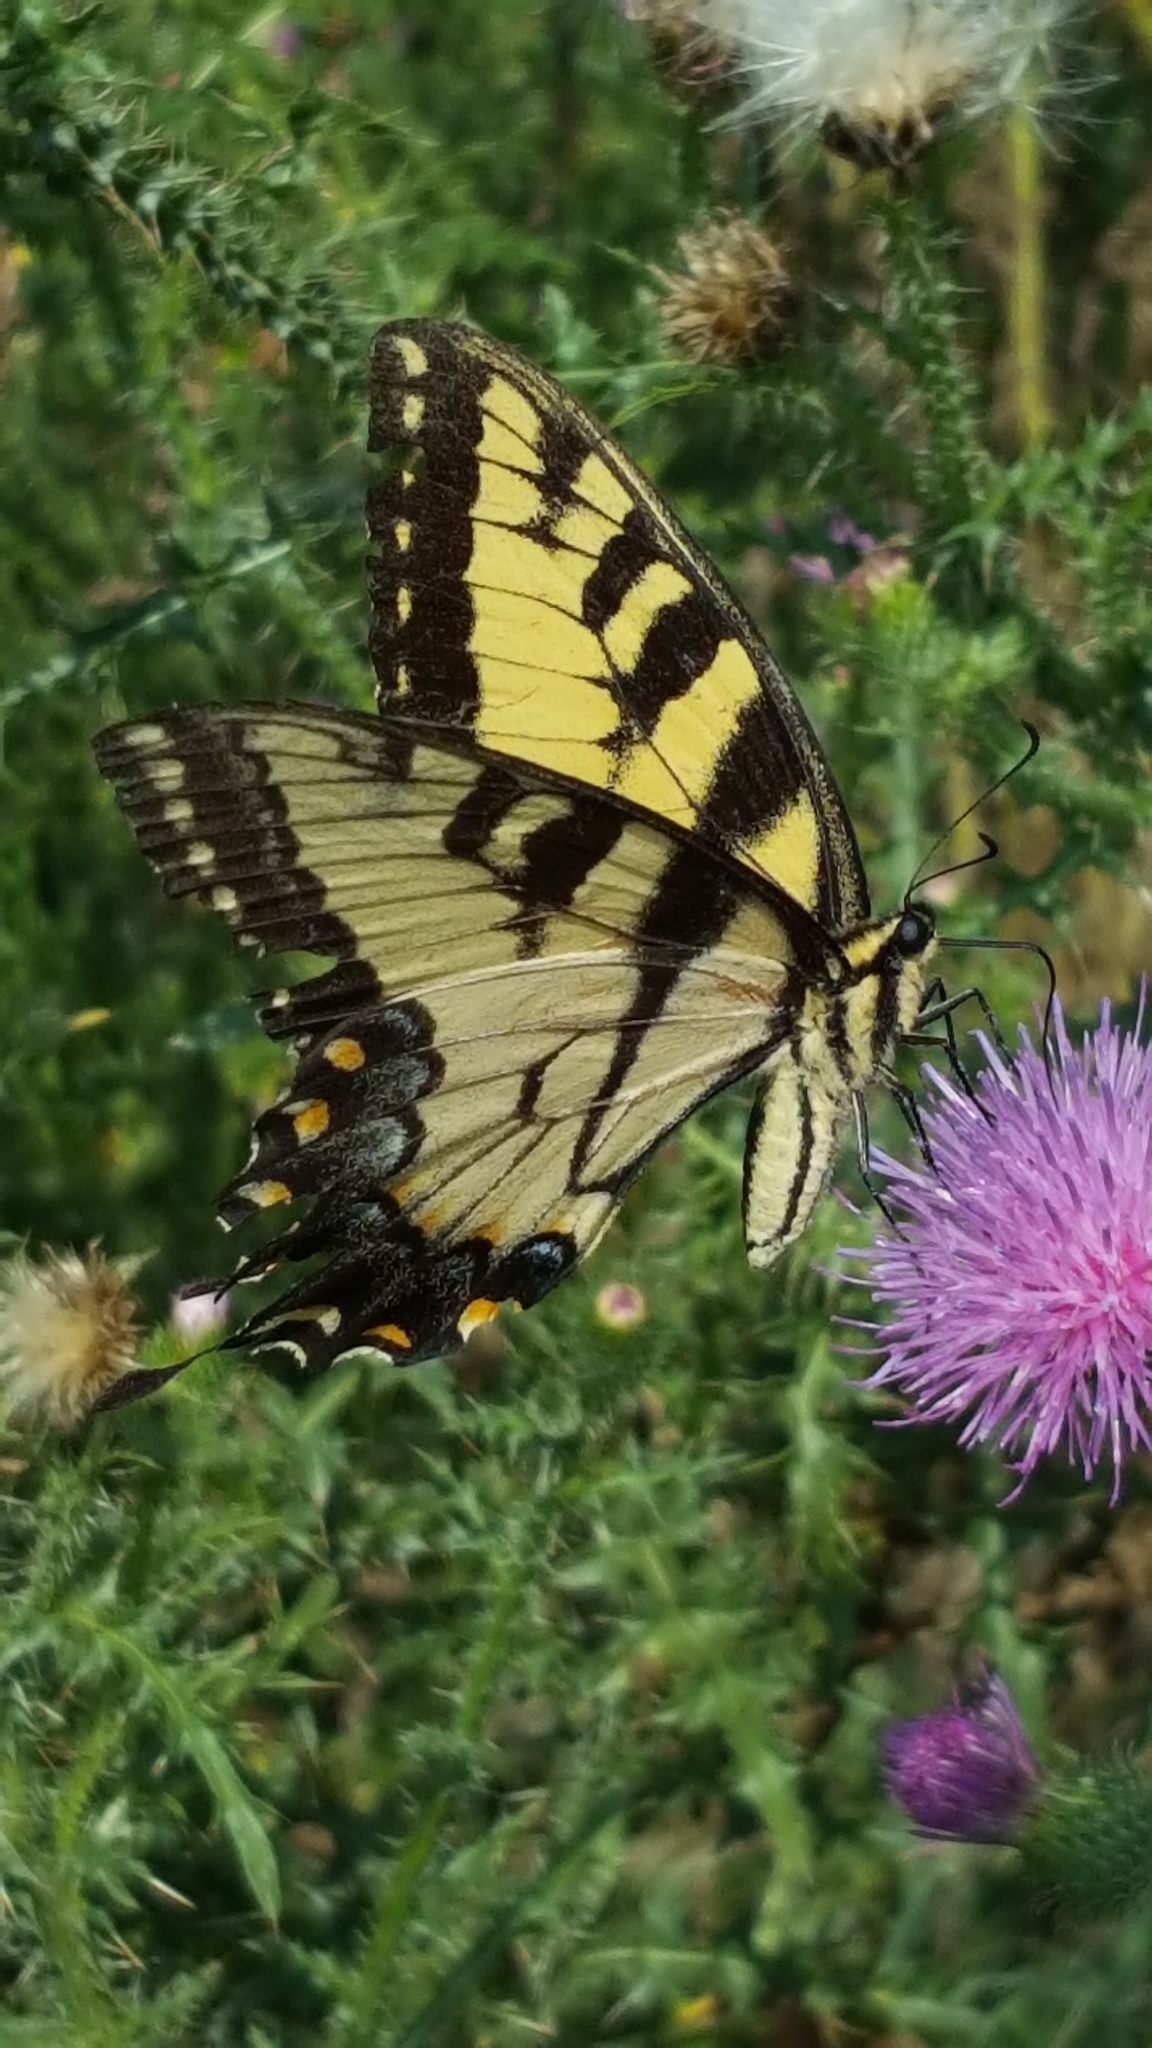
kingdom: Animalia
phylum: Arthropoda
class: Insecta
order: Lepidoptera
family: Papilionidae
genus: Papilio
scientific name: Papilio glaucus
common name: Tiger swallowtail
